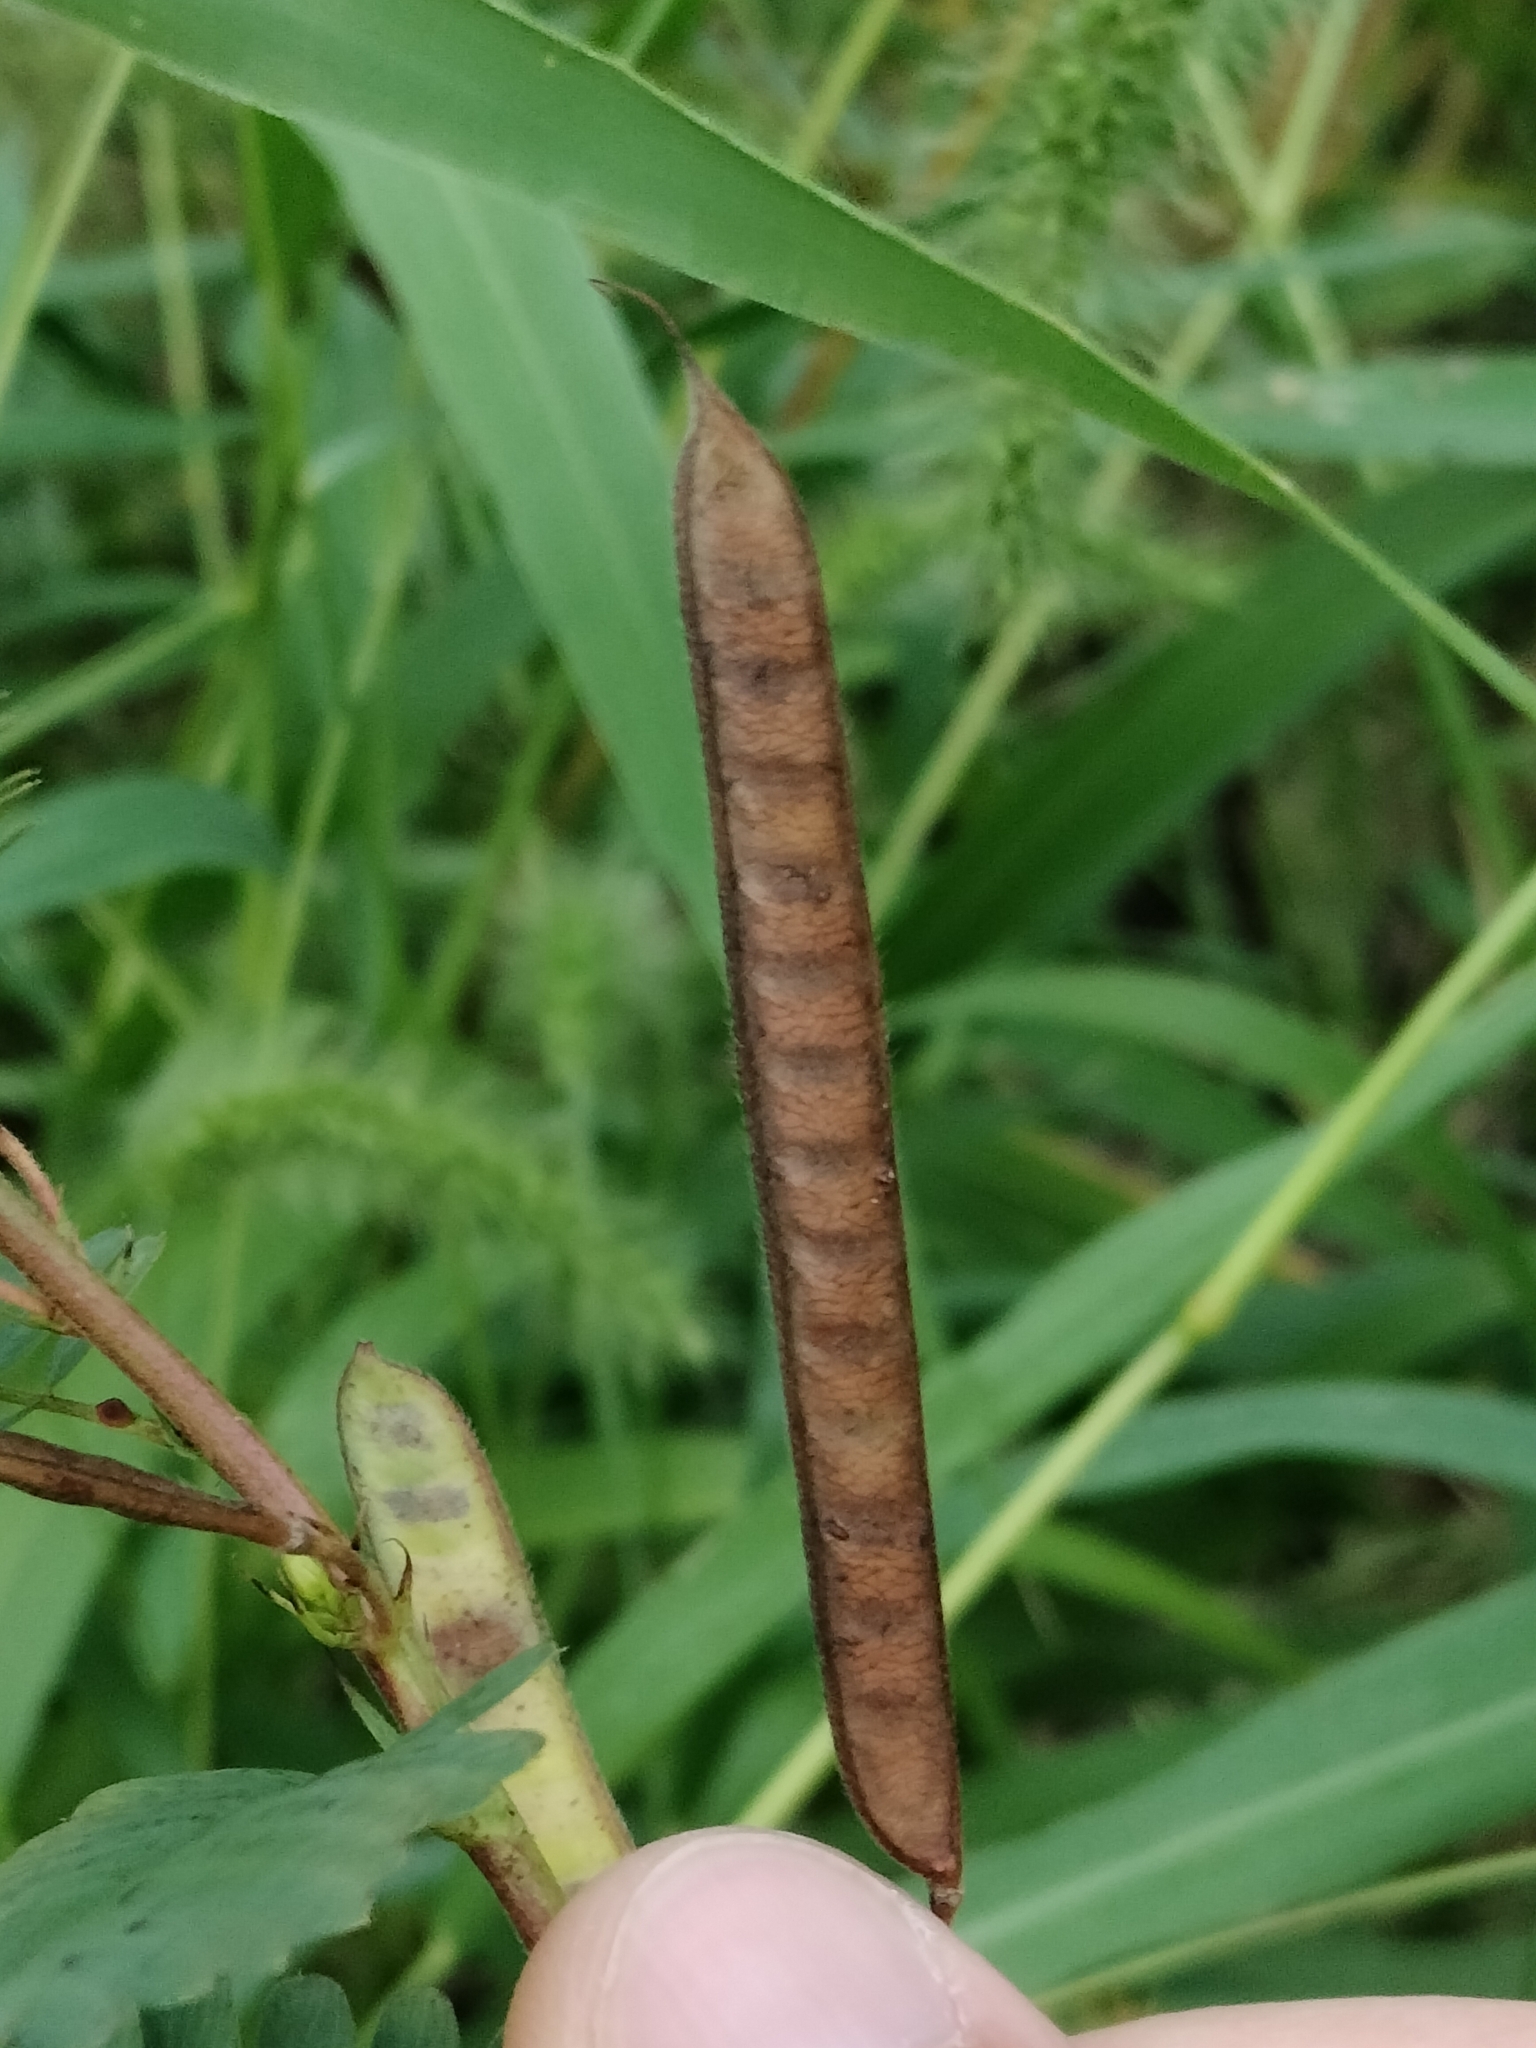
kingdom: Plantae
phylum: Tracheophyta
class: Magnoliopsida
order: Fabales
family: Fabaceae
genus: Chamaecrista
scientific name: Chamaecrista fasciculata
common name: Golden cassia
